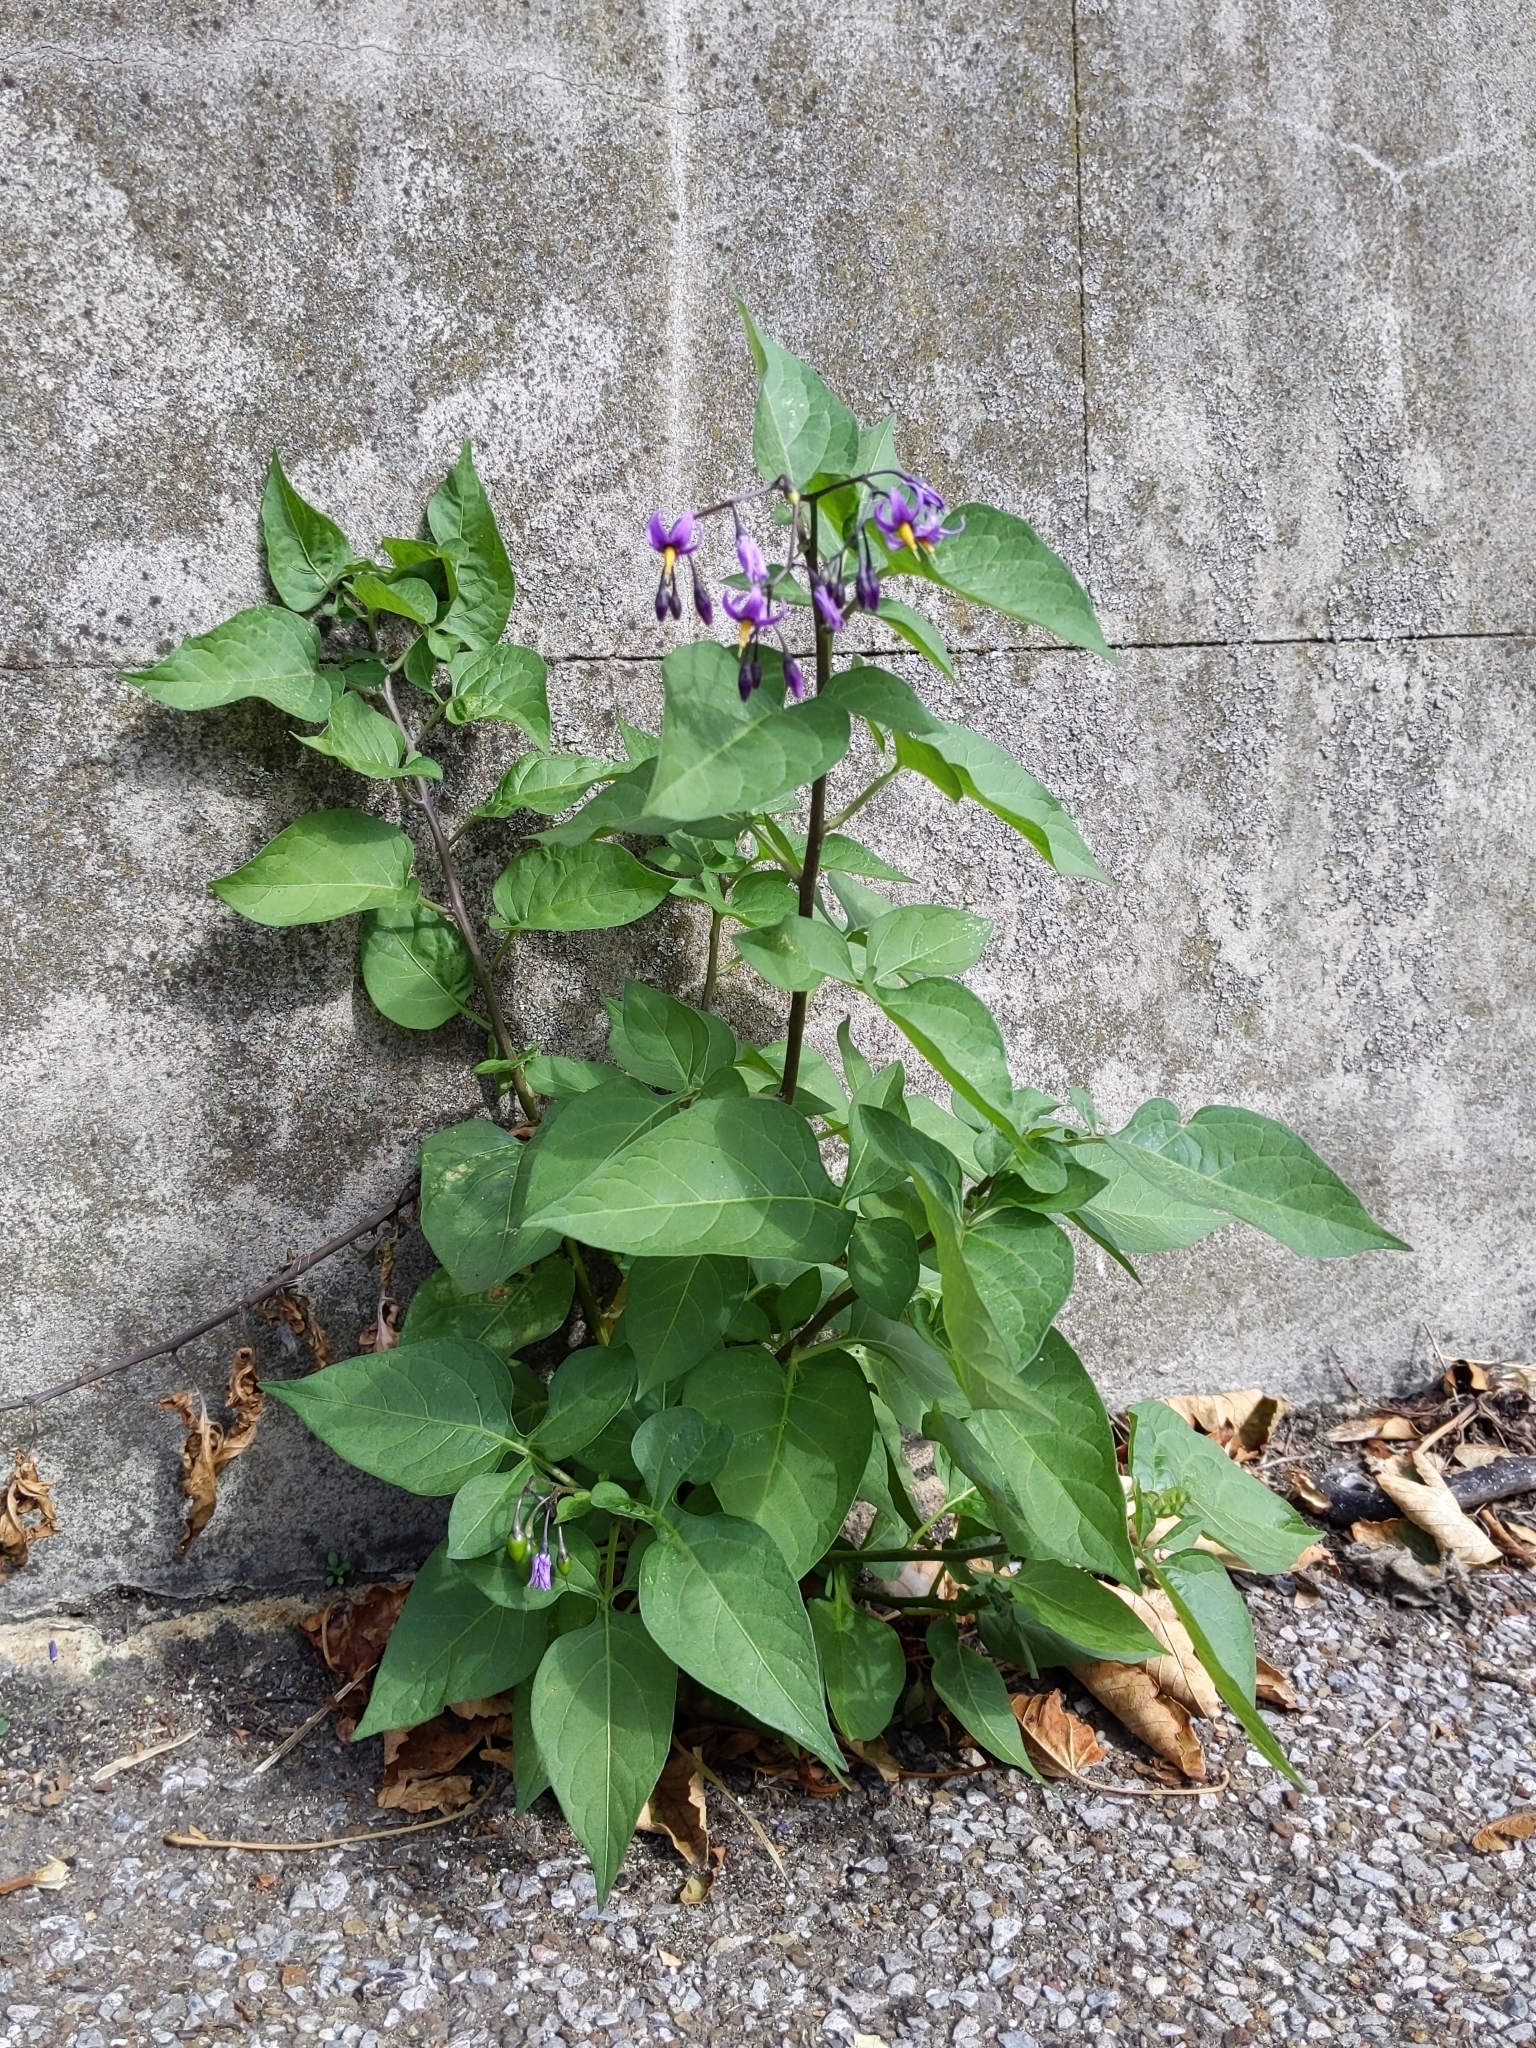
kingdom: Plantae
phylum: Tracheophyta
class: Magnoliopsida
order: Solanales
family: Solanaceae
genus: Solanum
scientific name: Solanum dulcamara
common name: Climbing nightshade
